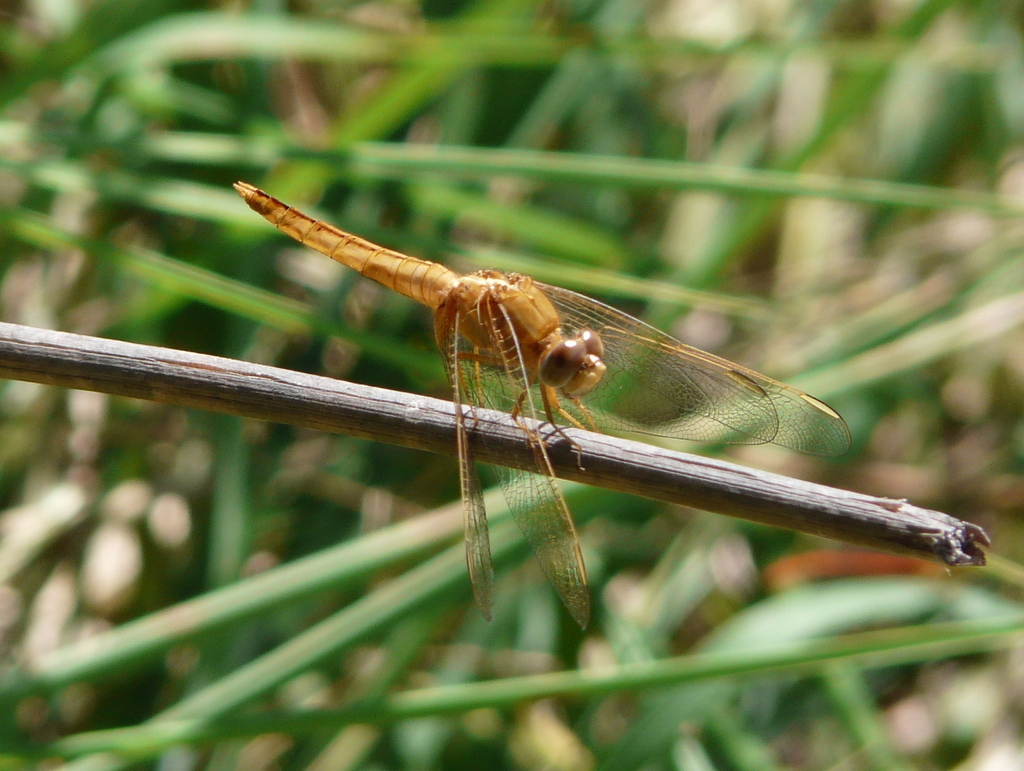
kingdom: Animalia
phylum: Arthropoda
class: Insecta
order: Odonata
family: Libellulidae
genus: Crocothemis
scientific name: Crocothemis erythraea
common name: Scarlet dragonfly
